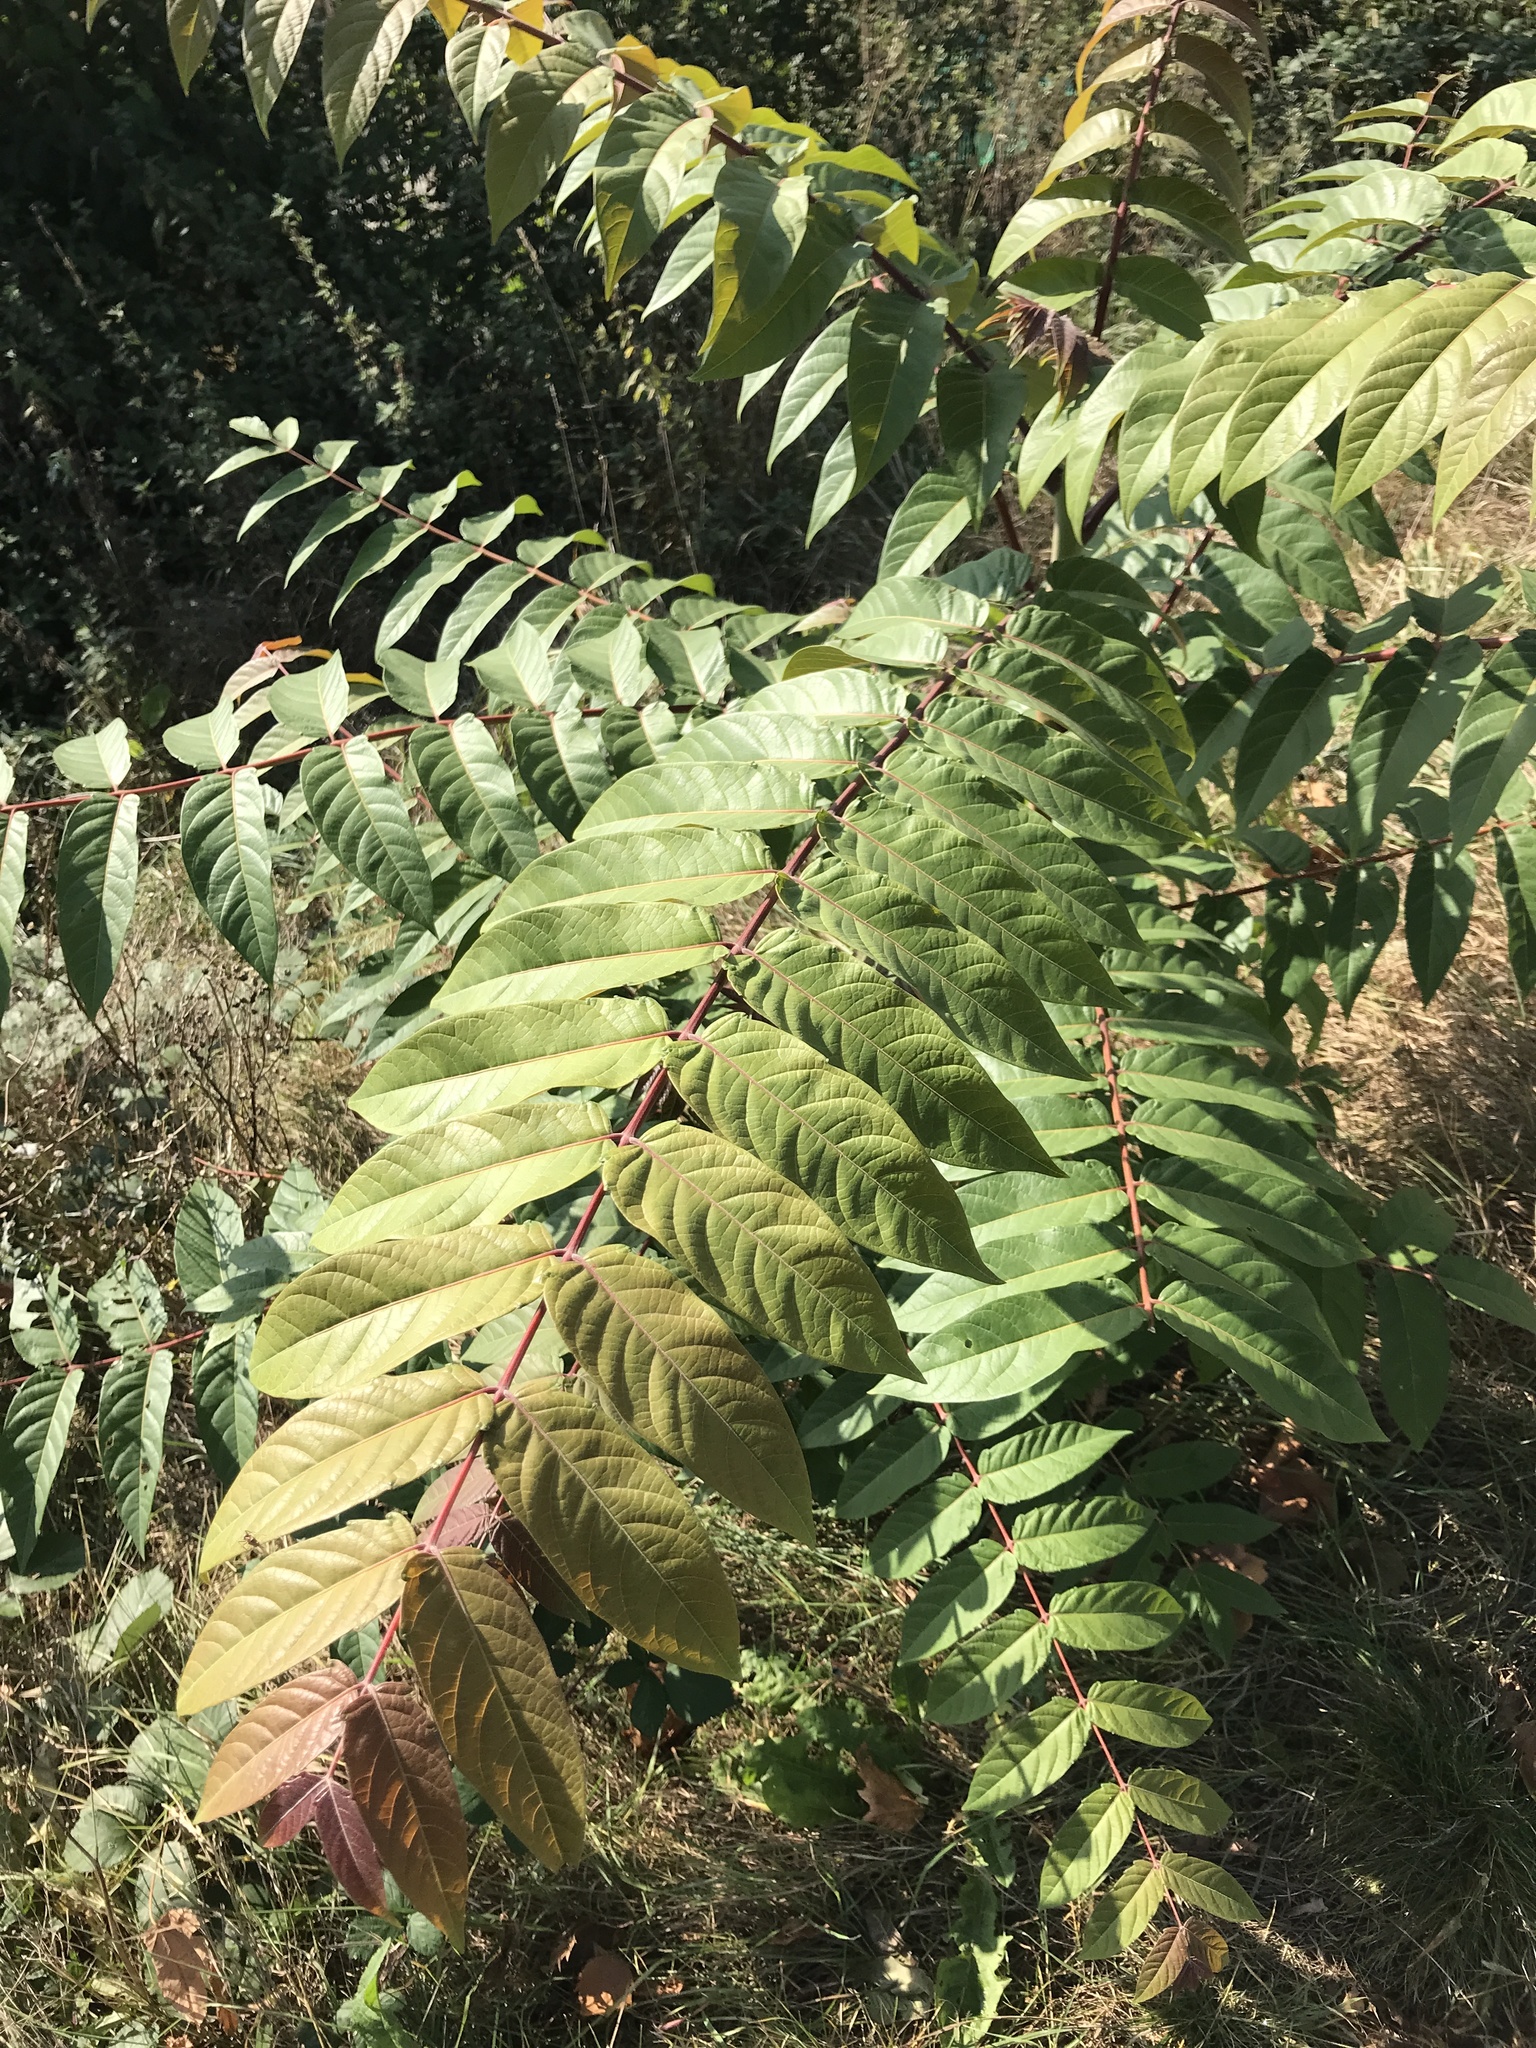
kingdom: Plantae
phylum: Tracheophyta
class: Magnoliopsida
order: Sapindales
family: Simaroubaceae
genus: Ailanthus
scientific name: Ailanthus altissima
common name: Tree-of-heaven
